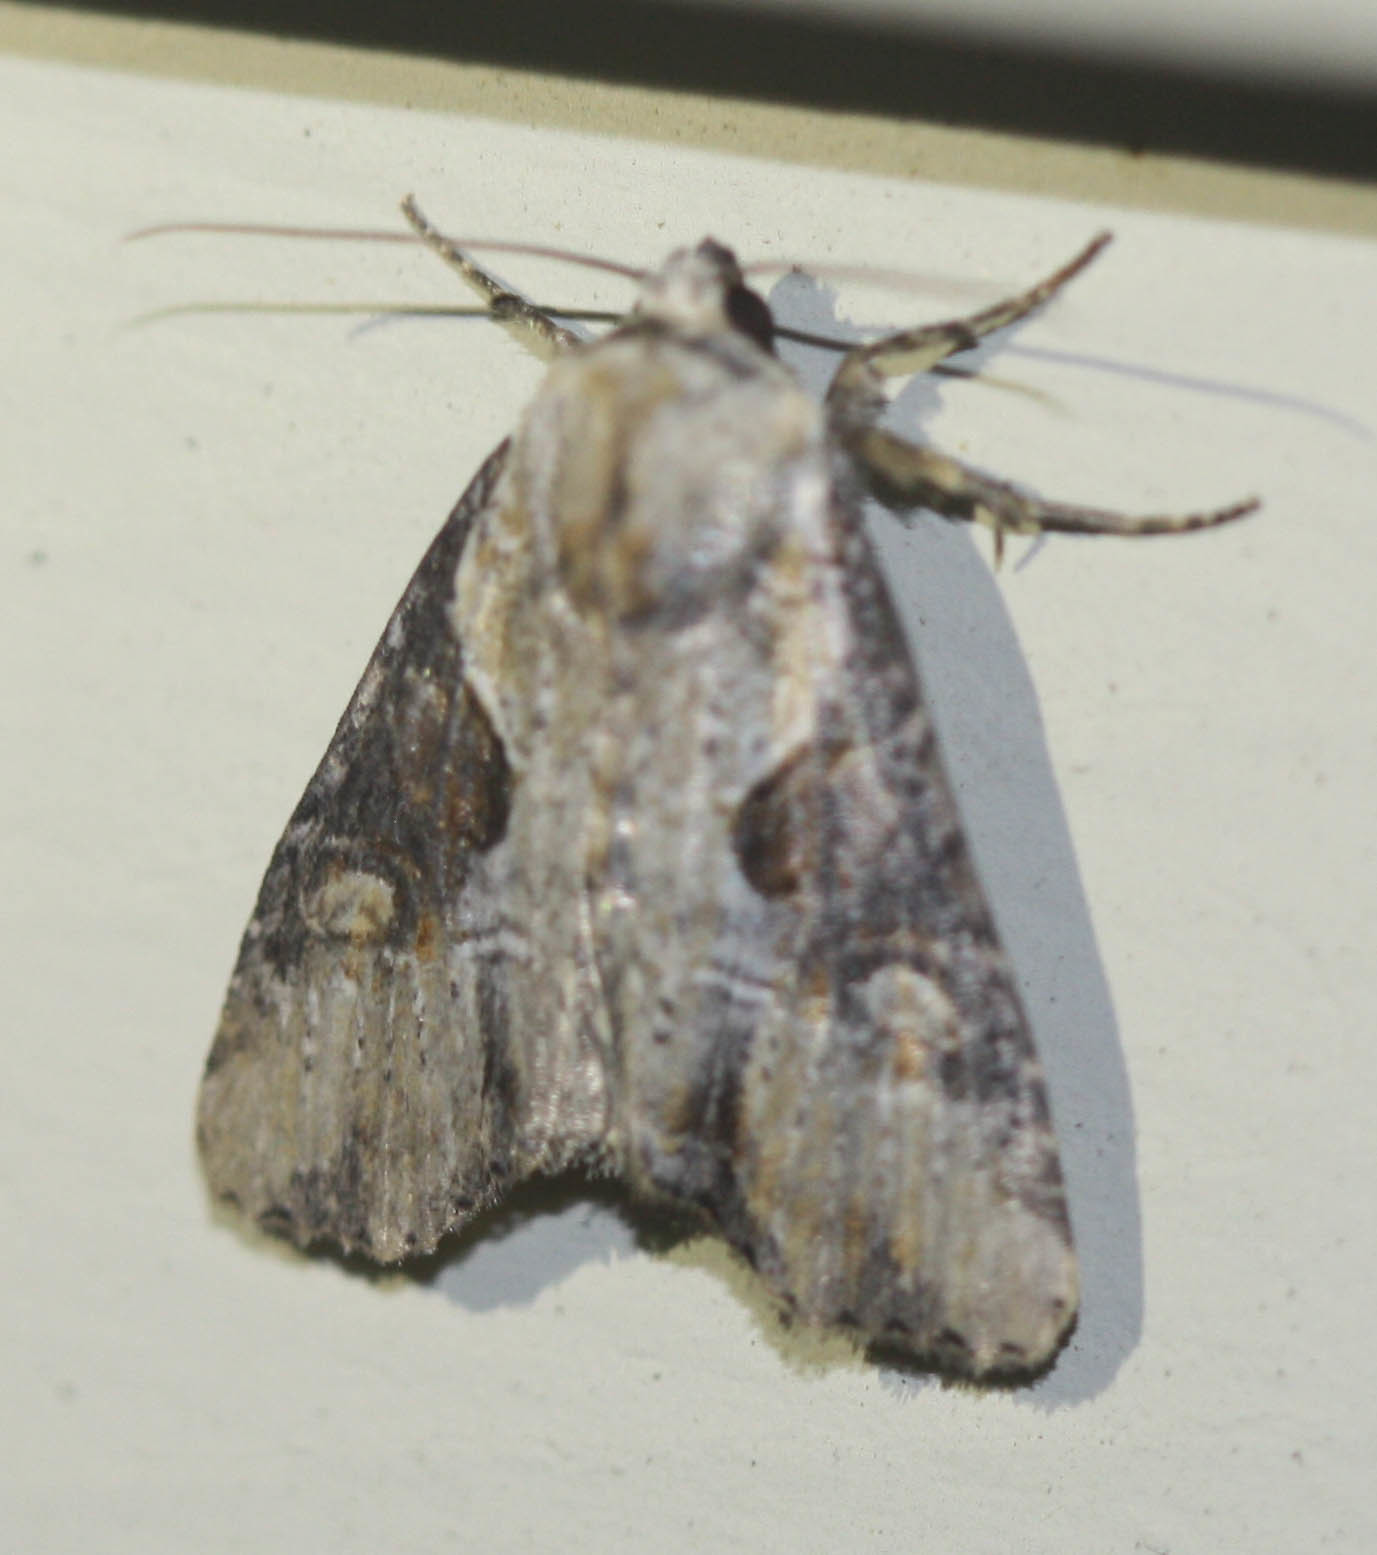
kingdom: Animalia
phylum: Arthropoda
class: Insecta
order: Lepidoptera
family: Noctuidae
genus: Lateroligia
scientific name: Lateroligia ophiogramma
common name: Double lobed
